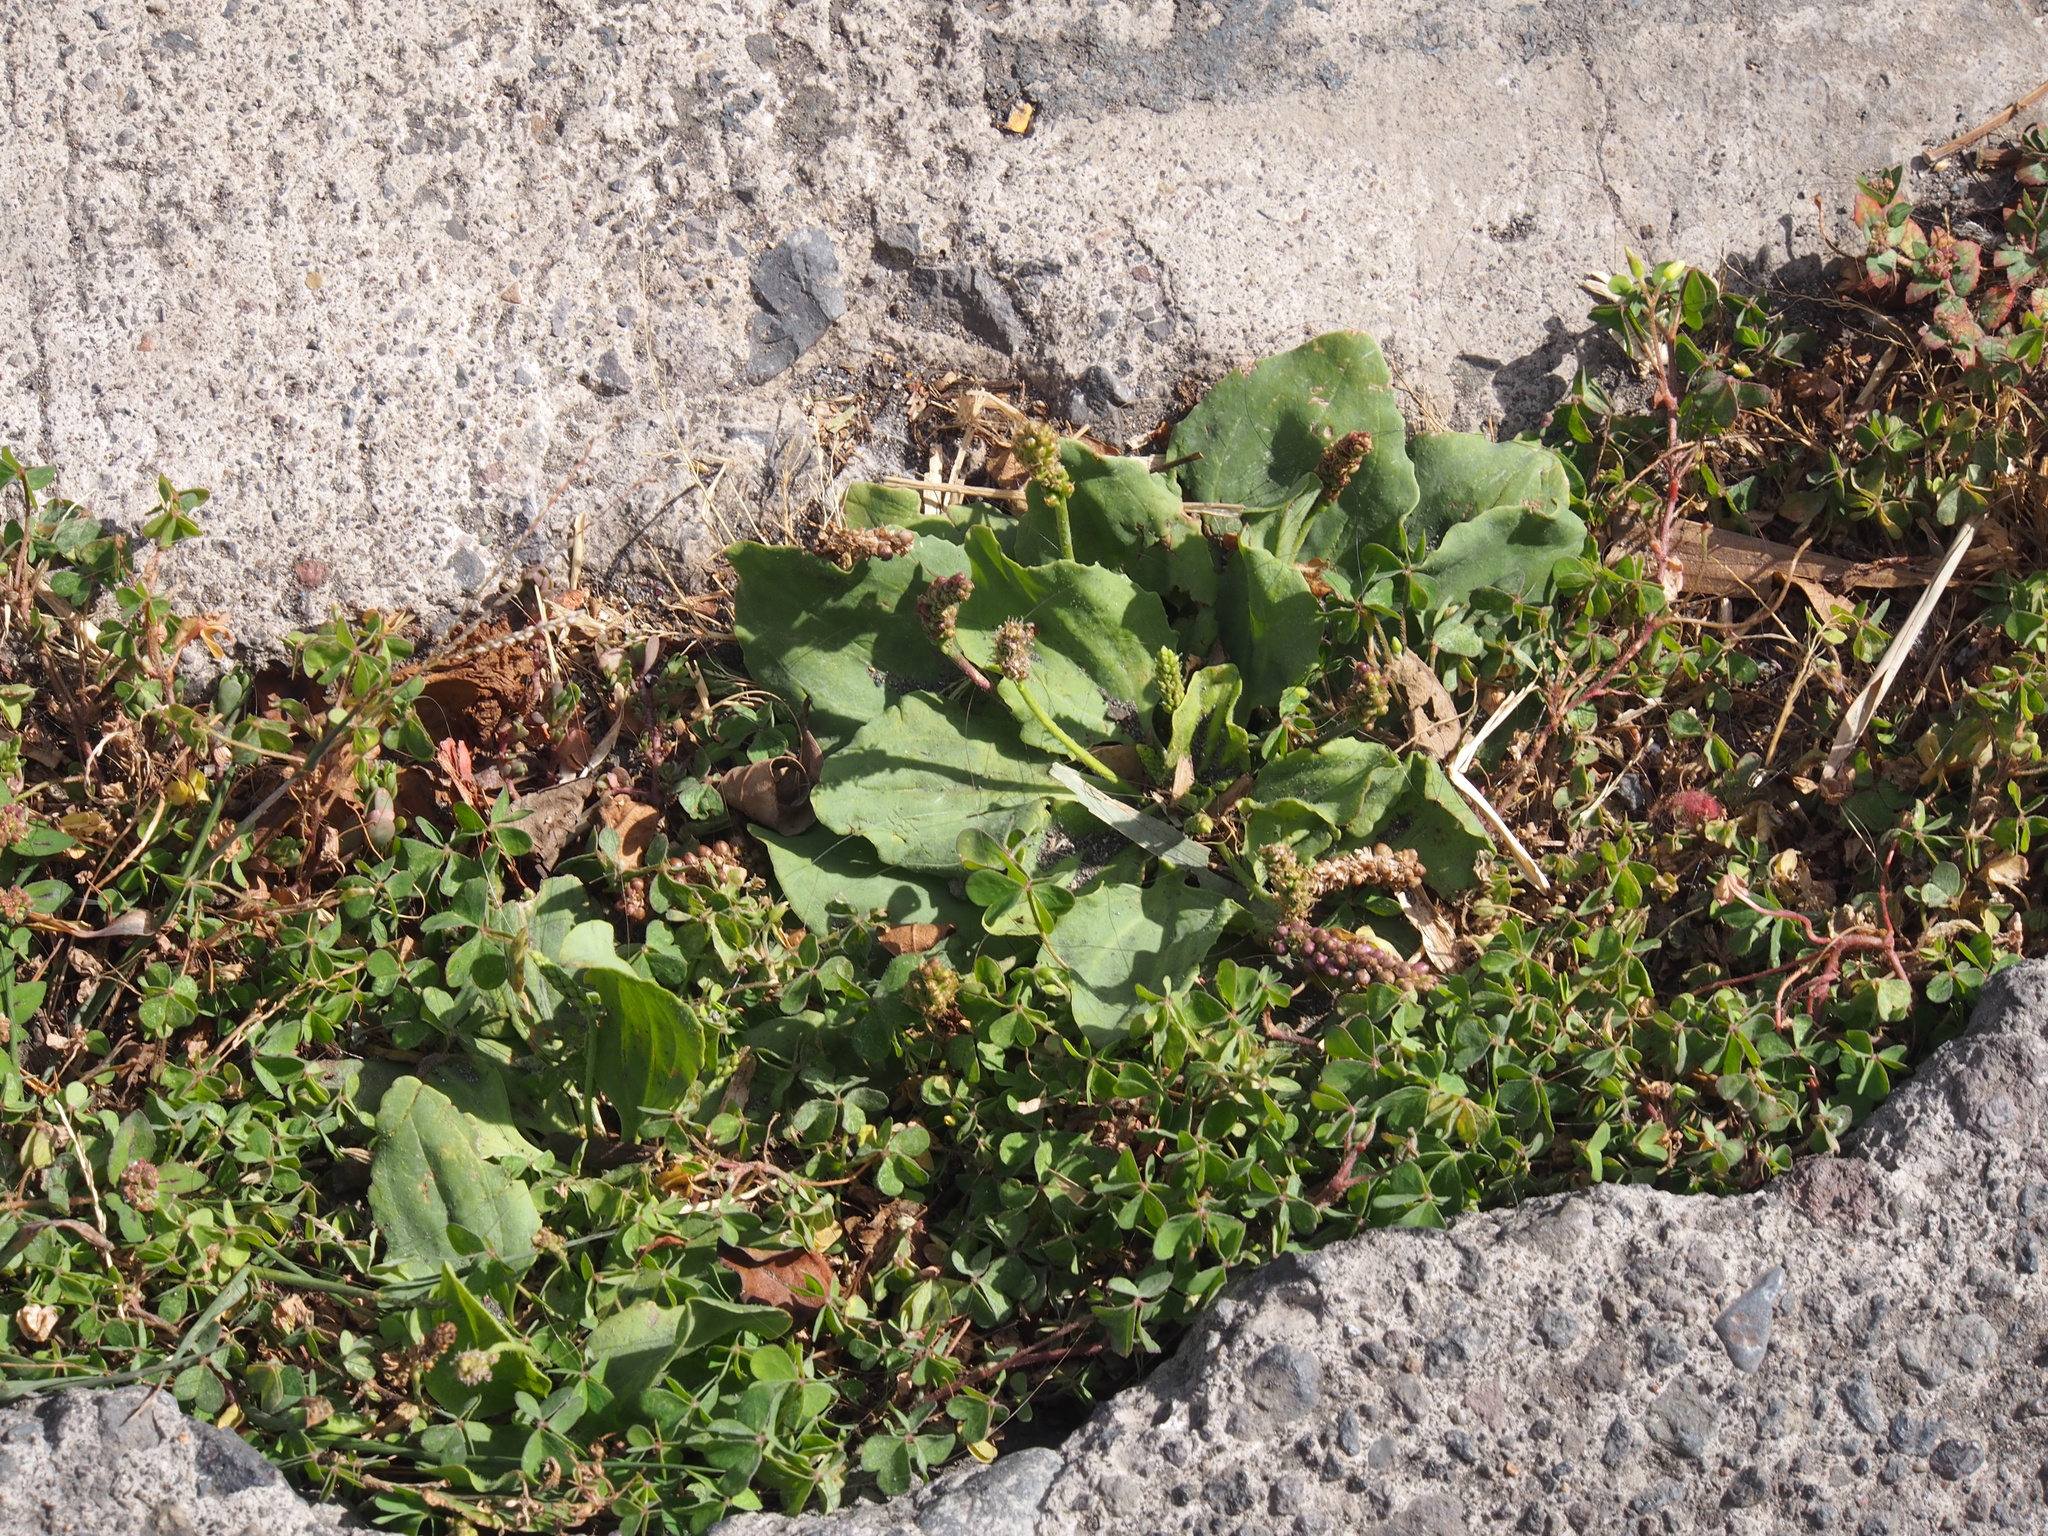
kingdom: Plantae
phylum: Tracheophyta
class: Magnoliopsida
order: Oxalidales
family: Oxalidaceae
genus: Oxalis
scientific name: Oxalis corniculata
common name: Procumbent yellow-sorrel
